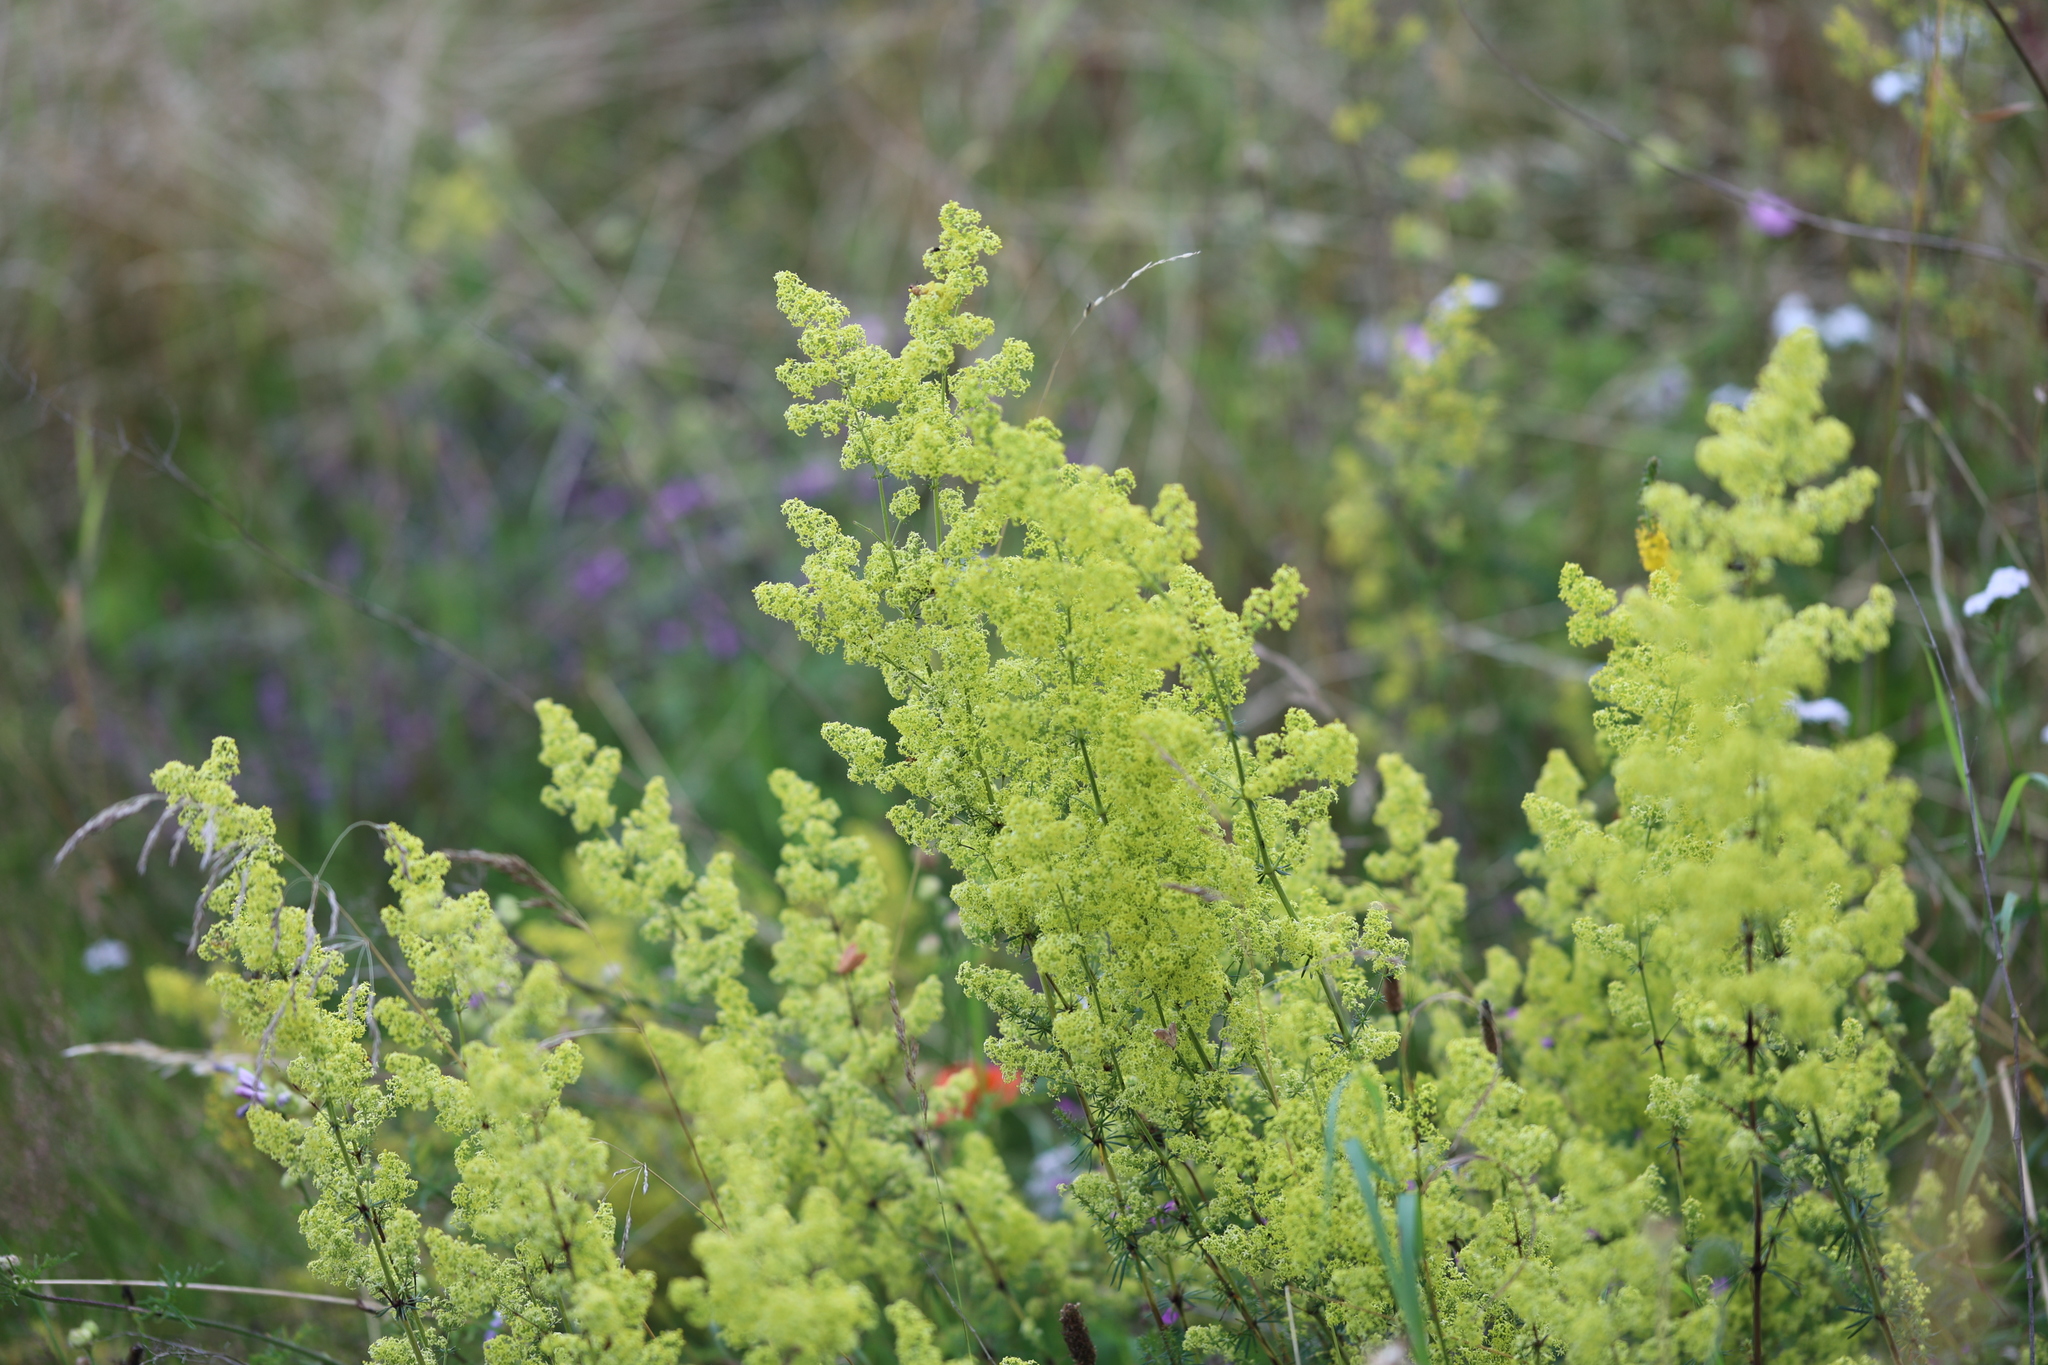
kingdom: Plantae
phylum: Tracheophyta
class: Magnoliopsida
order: Gentianales
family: Rubiaceae
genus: Galium
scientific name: Galium verum
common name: Lady's bedstraw
